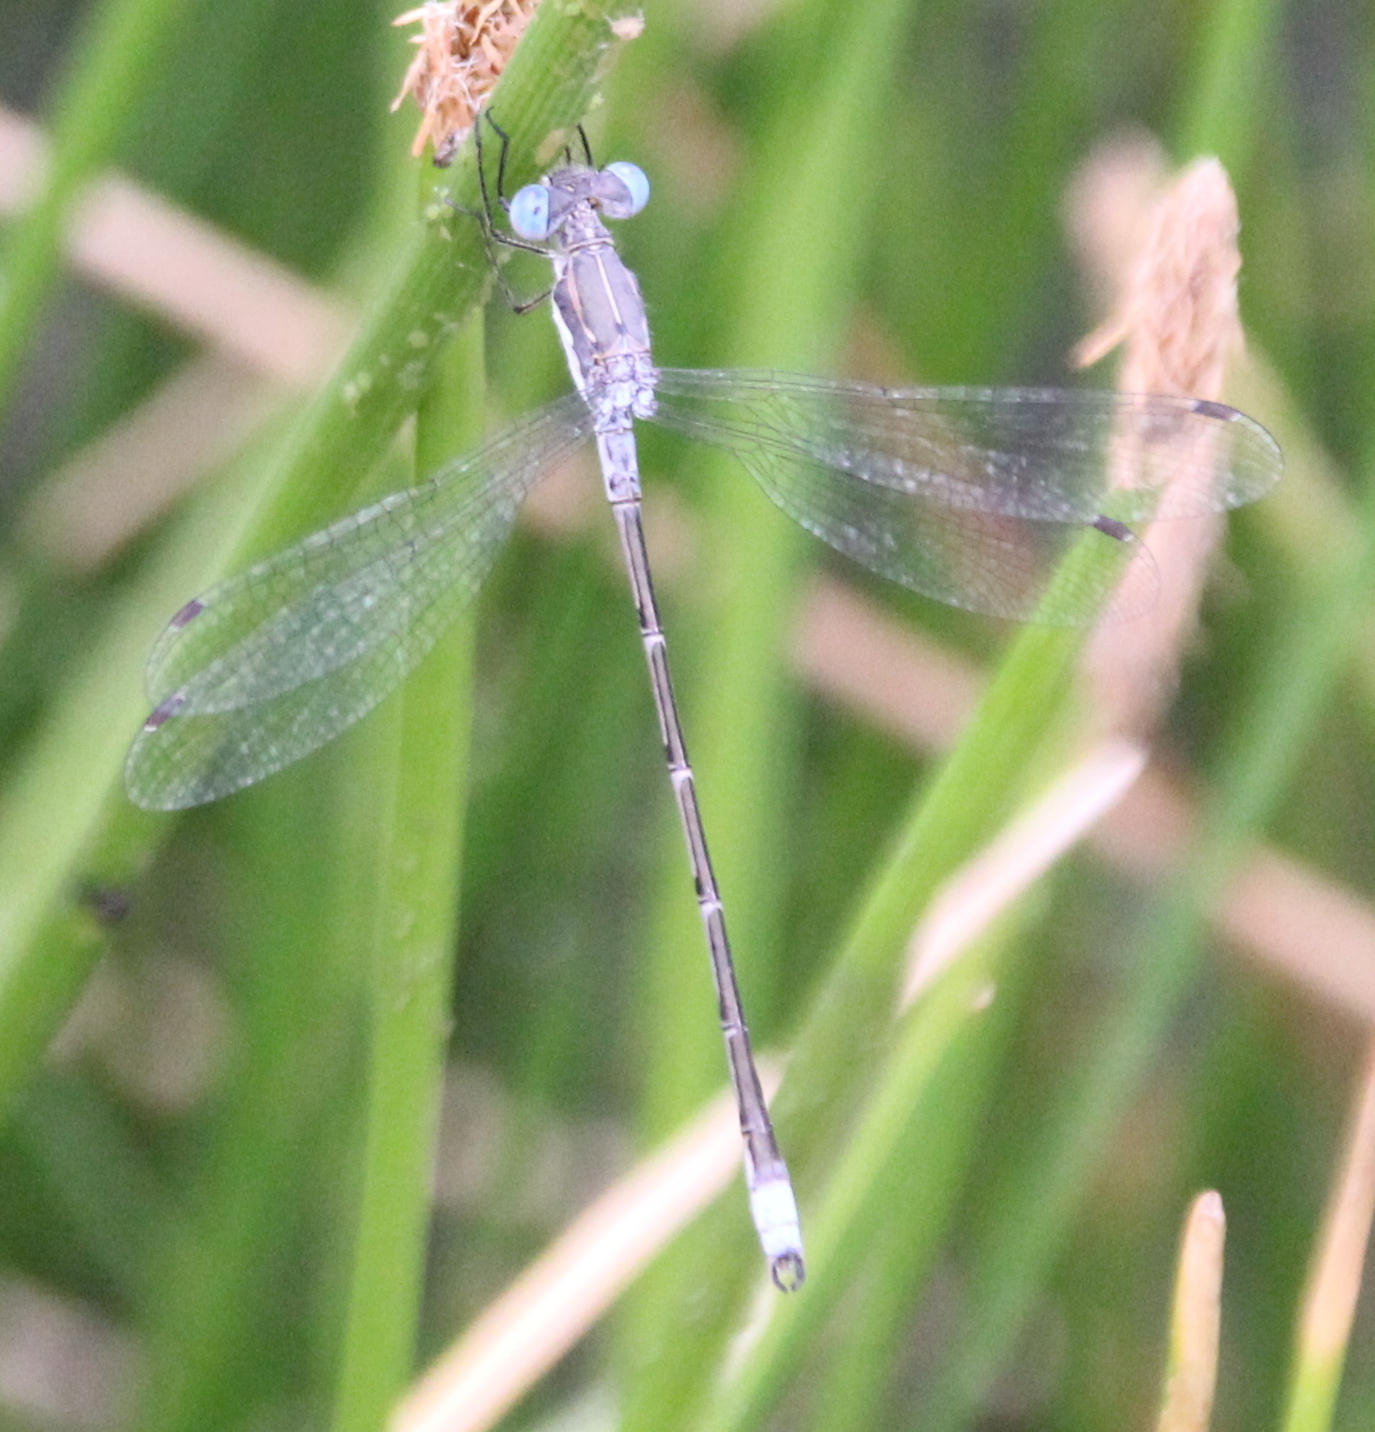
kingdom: Animalia
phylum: Arthropoda
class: Insecta
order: Odonata
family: Lestidae
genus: Lestes
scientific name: Lestes congener
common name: Spotted spreadwing
